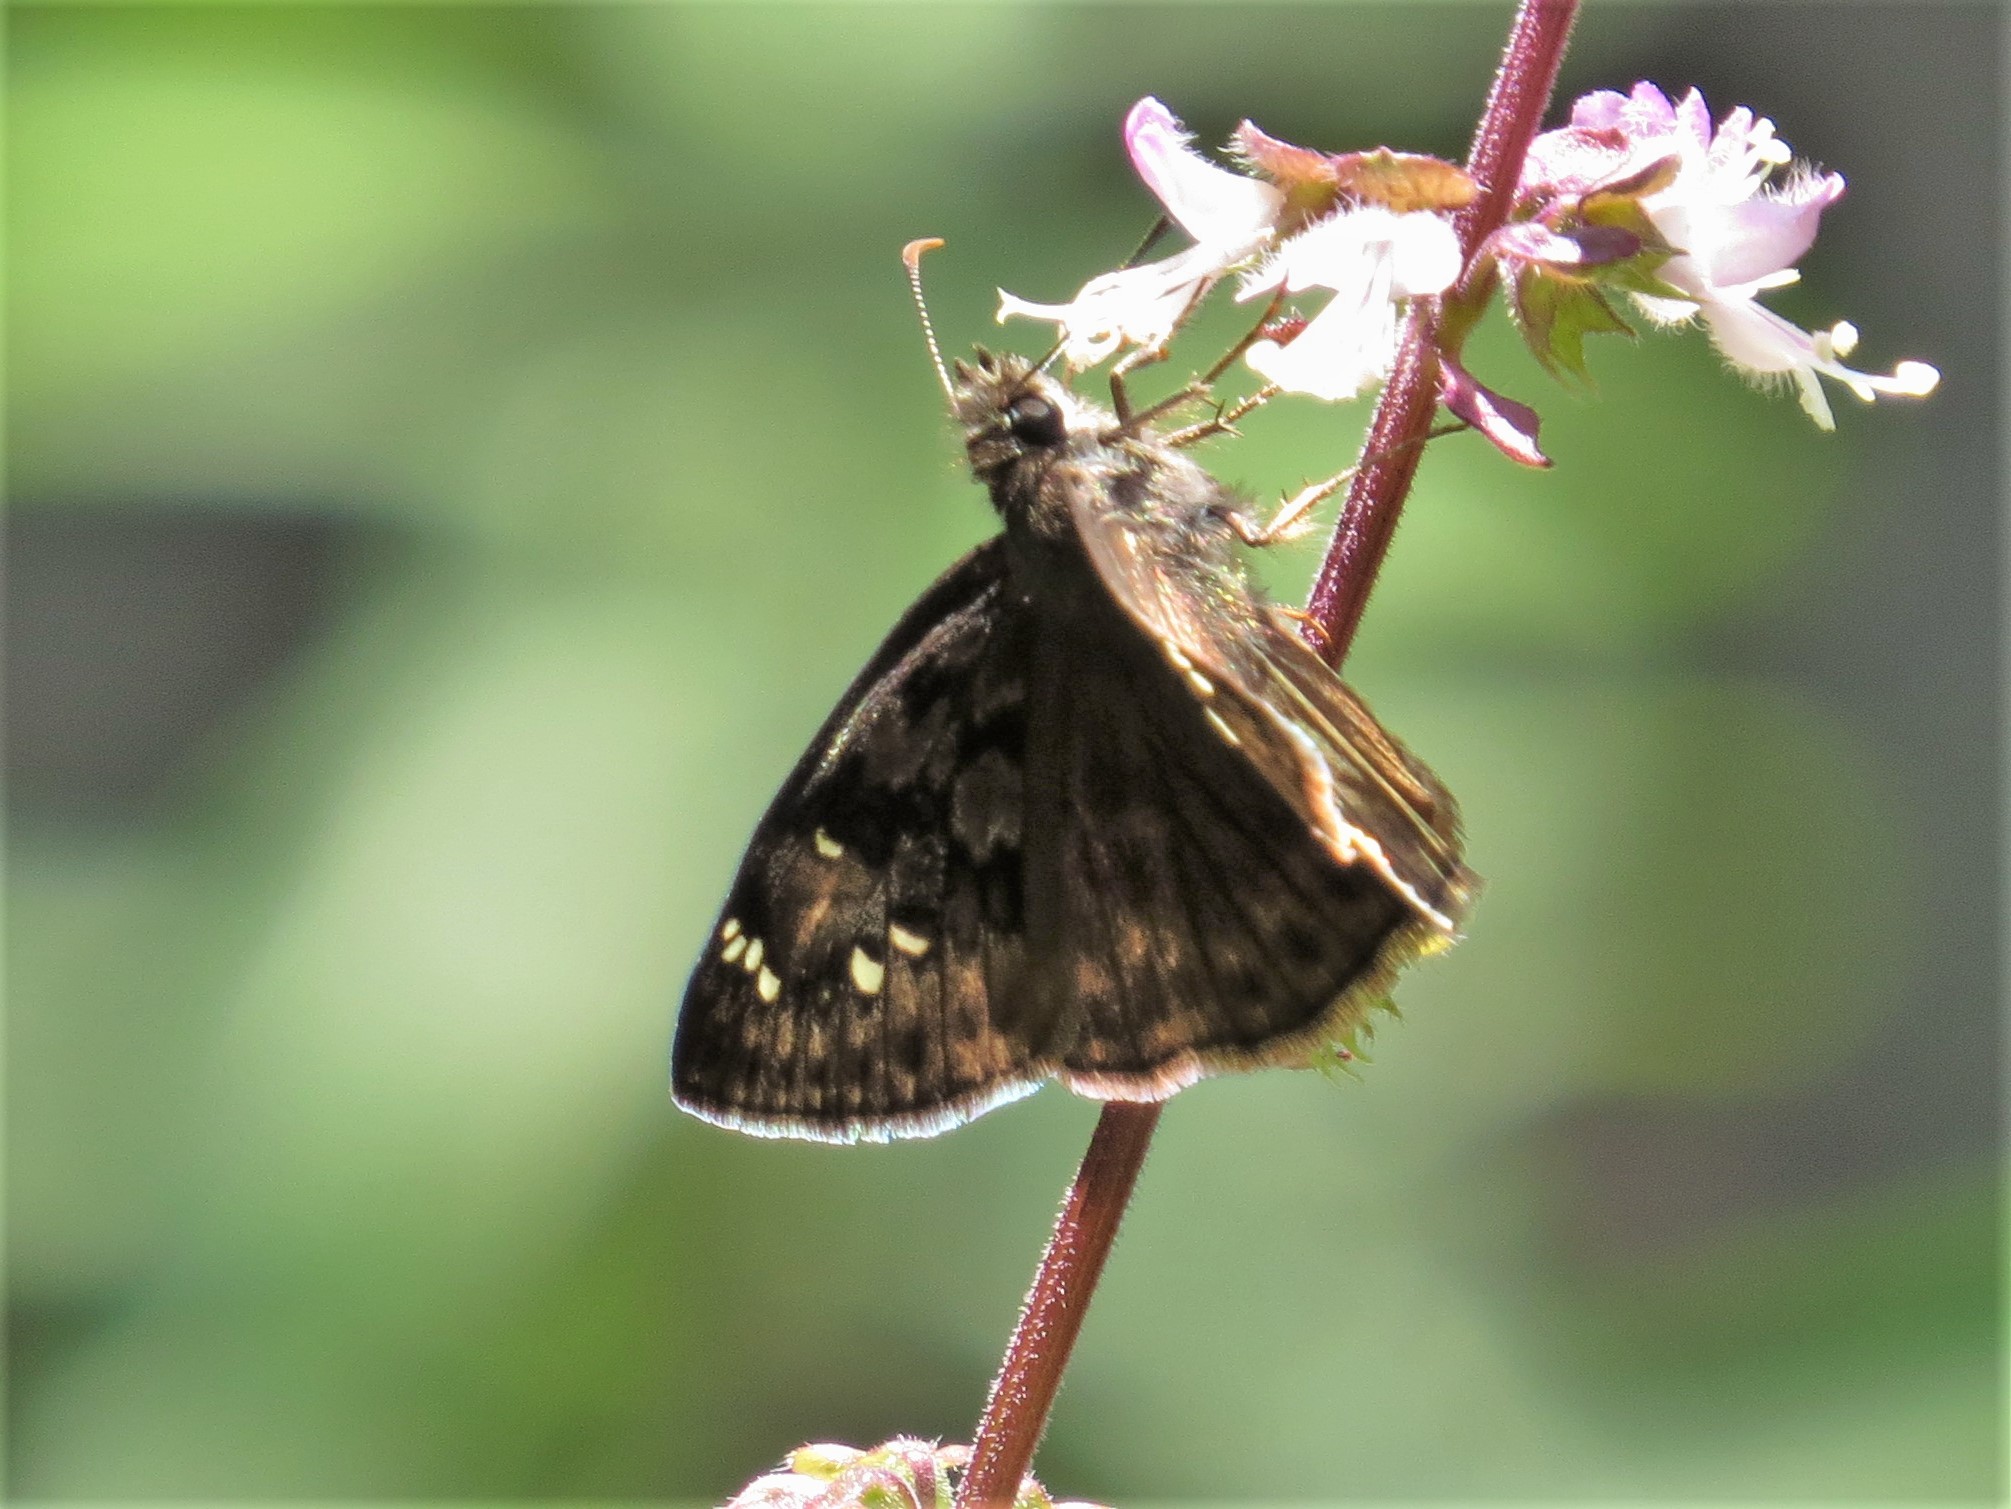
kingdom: Animalia
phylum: Arthropoda
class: Insecta
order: Lepidoptera
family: Hesperiidae
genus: Erynnis
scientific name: Erynnis horatius
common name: Horace's duskywing
